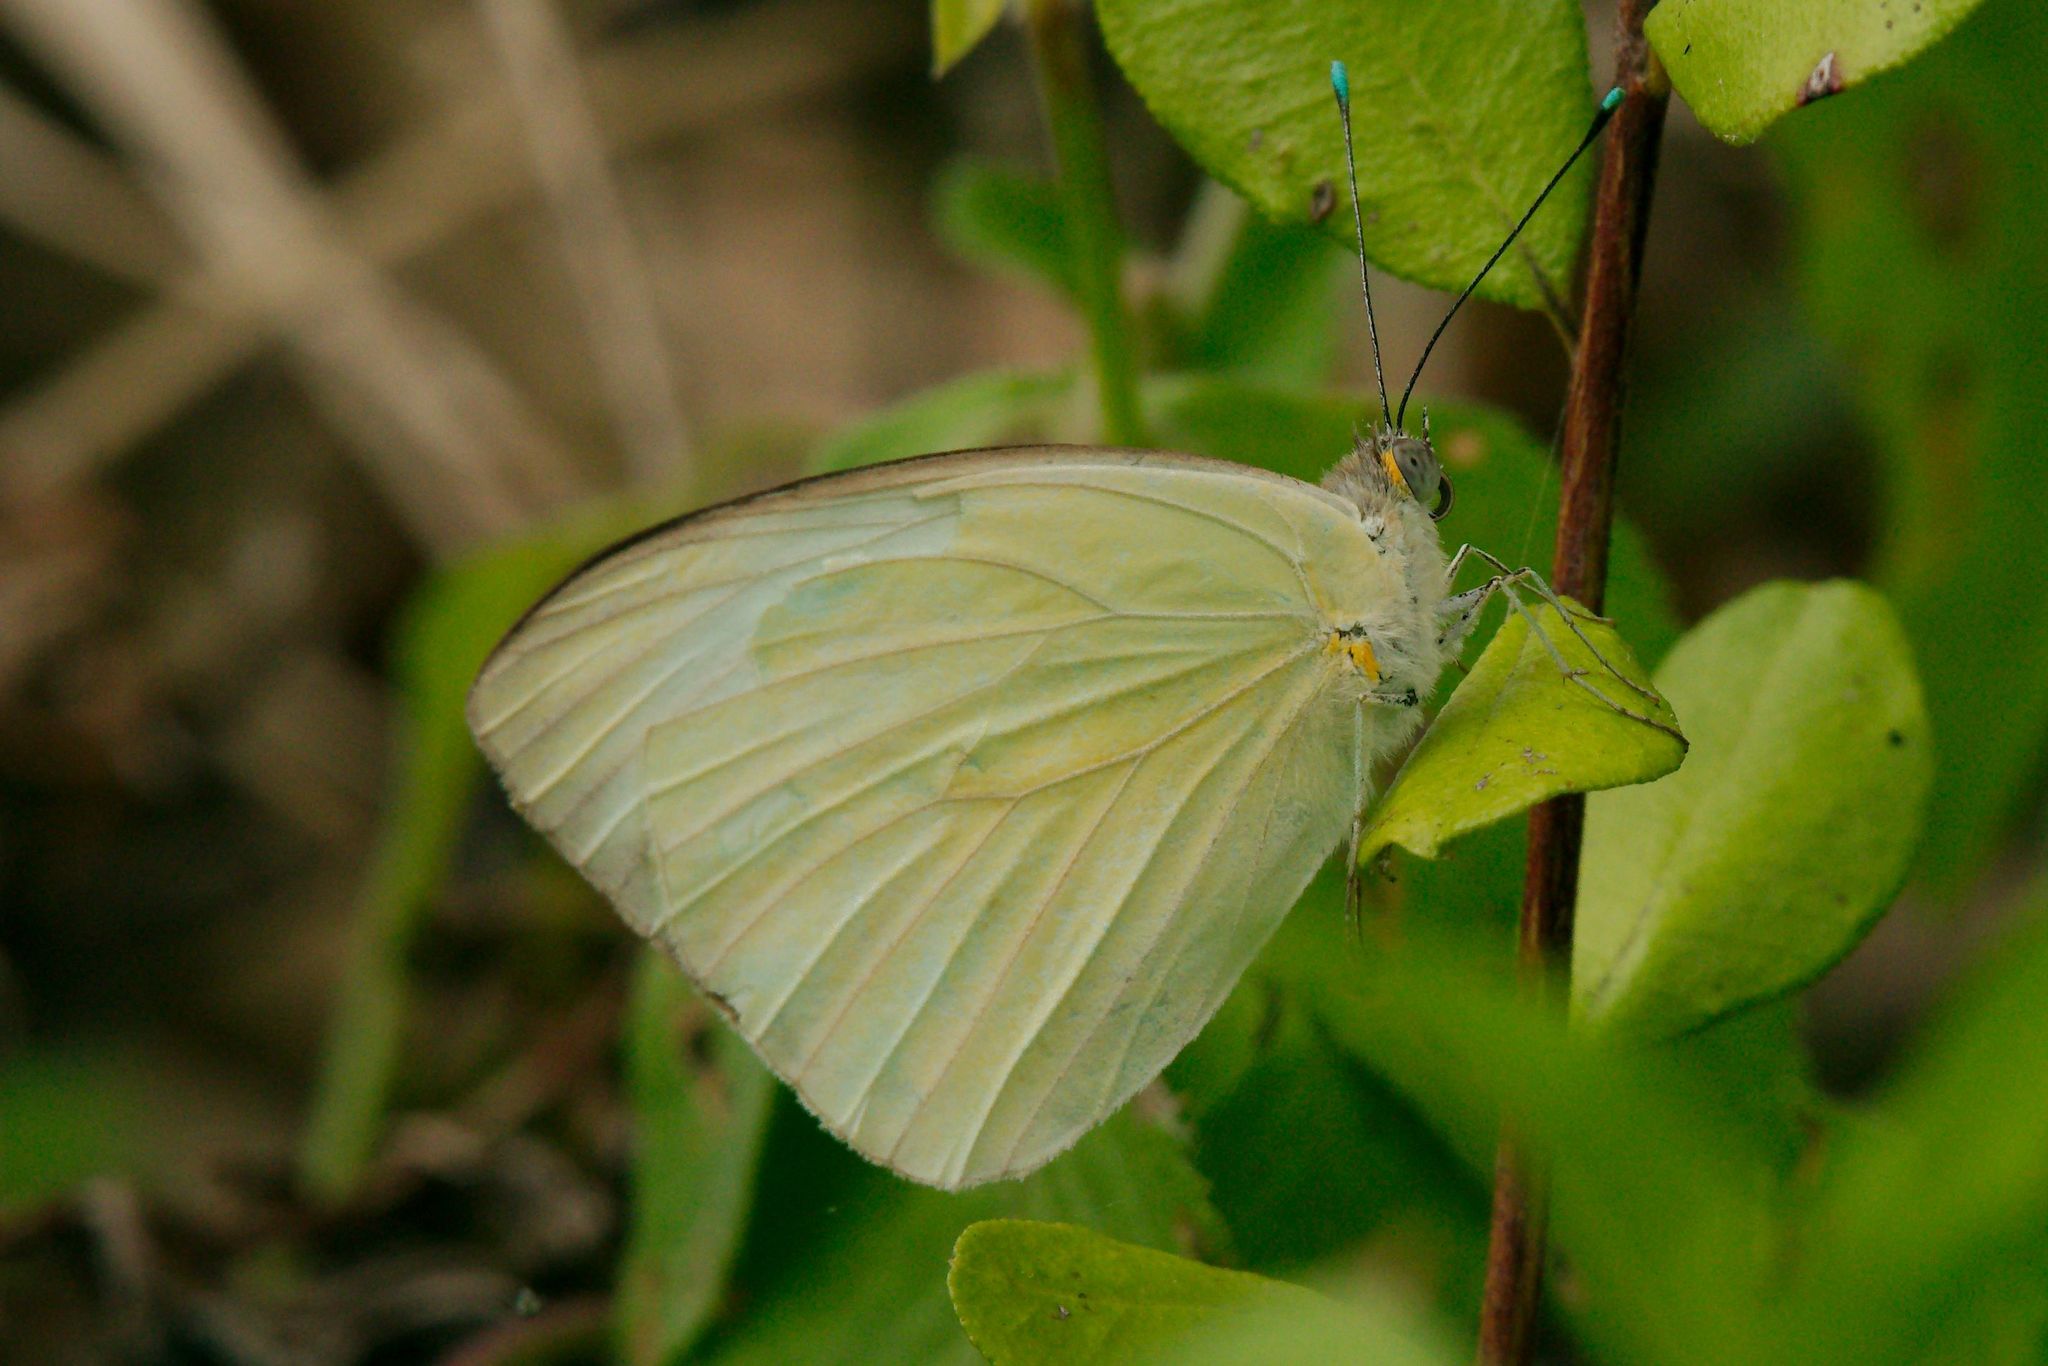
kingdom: Animalia
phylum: Arthropoda
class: Insecta
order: Lepidoptera
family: Pieridae
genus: Ascia
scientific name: Ascia monuste
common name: Great southern white
